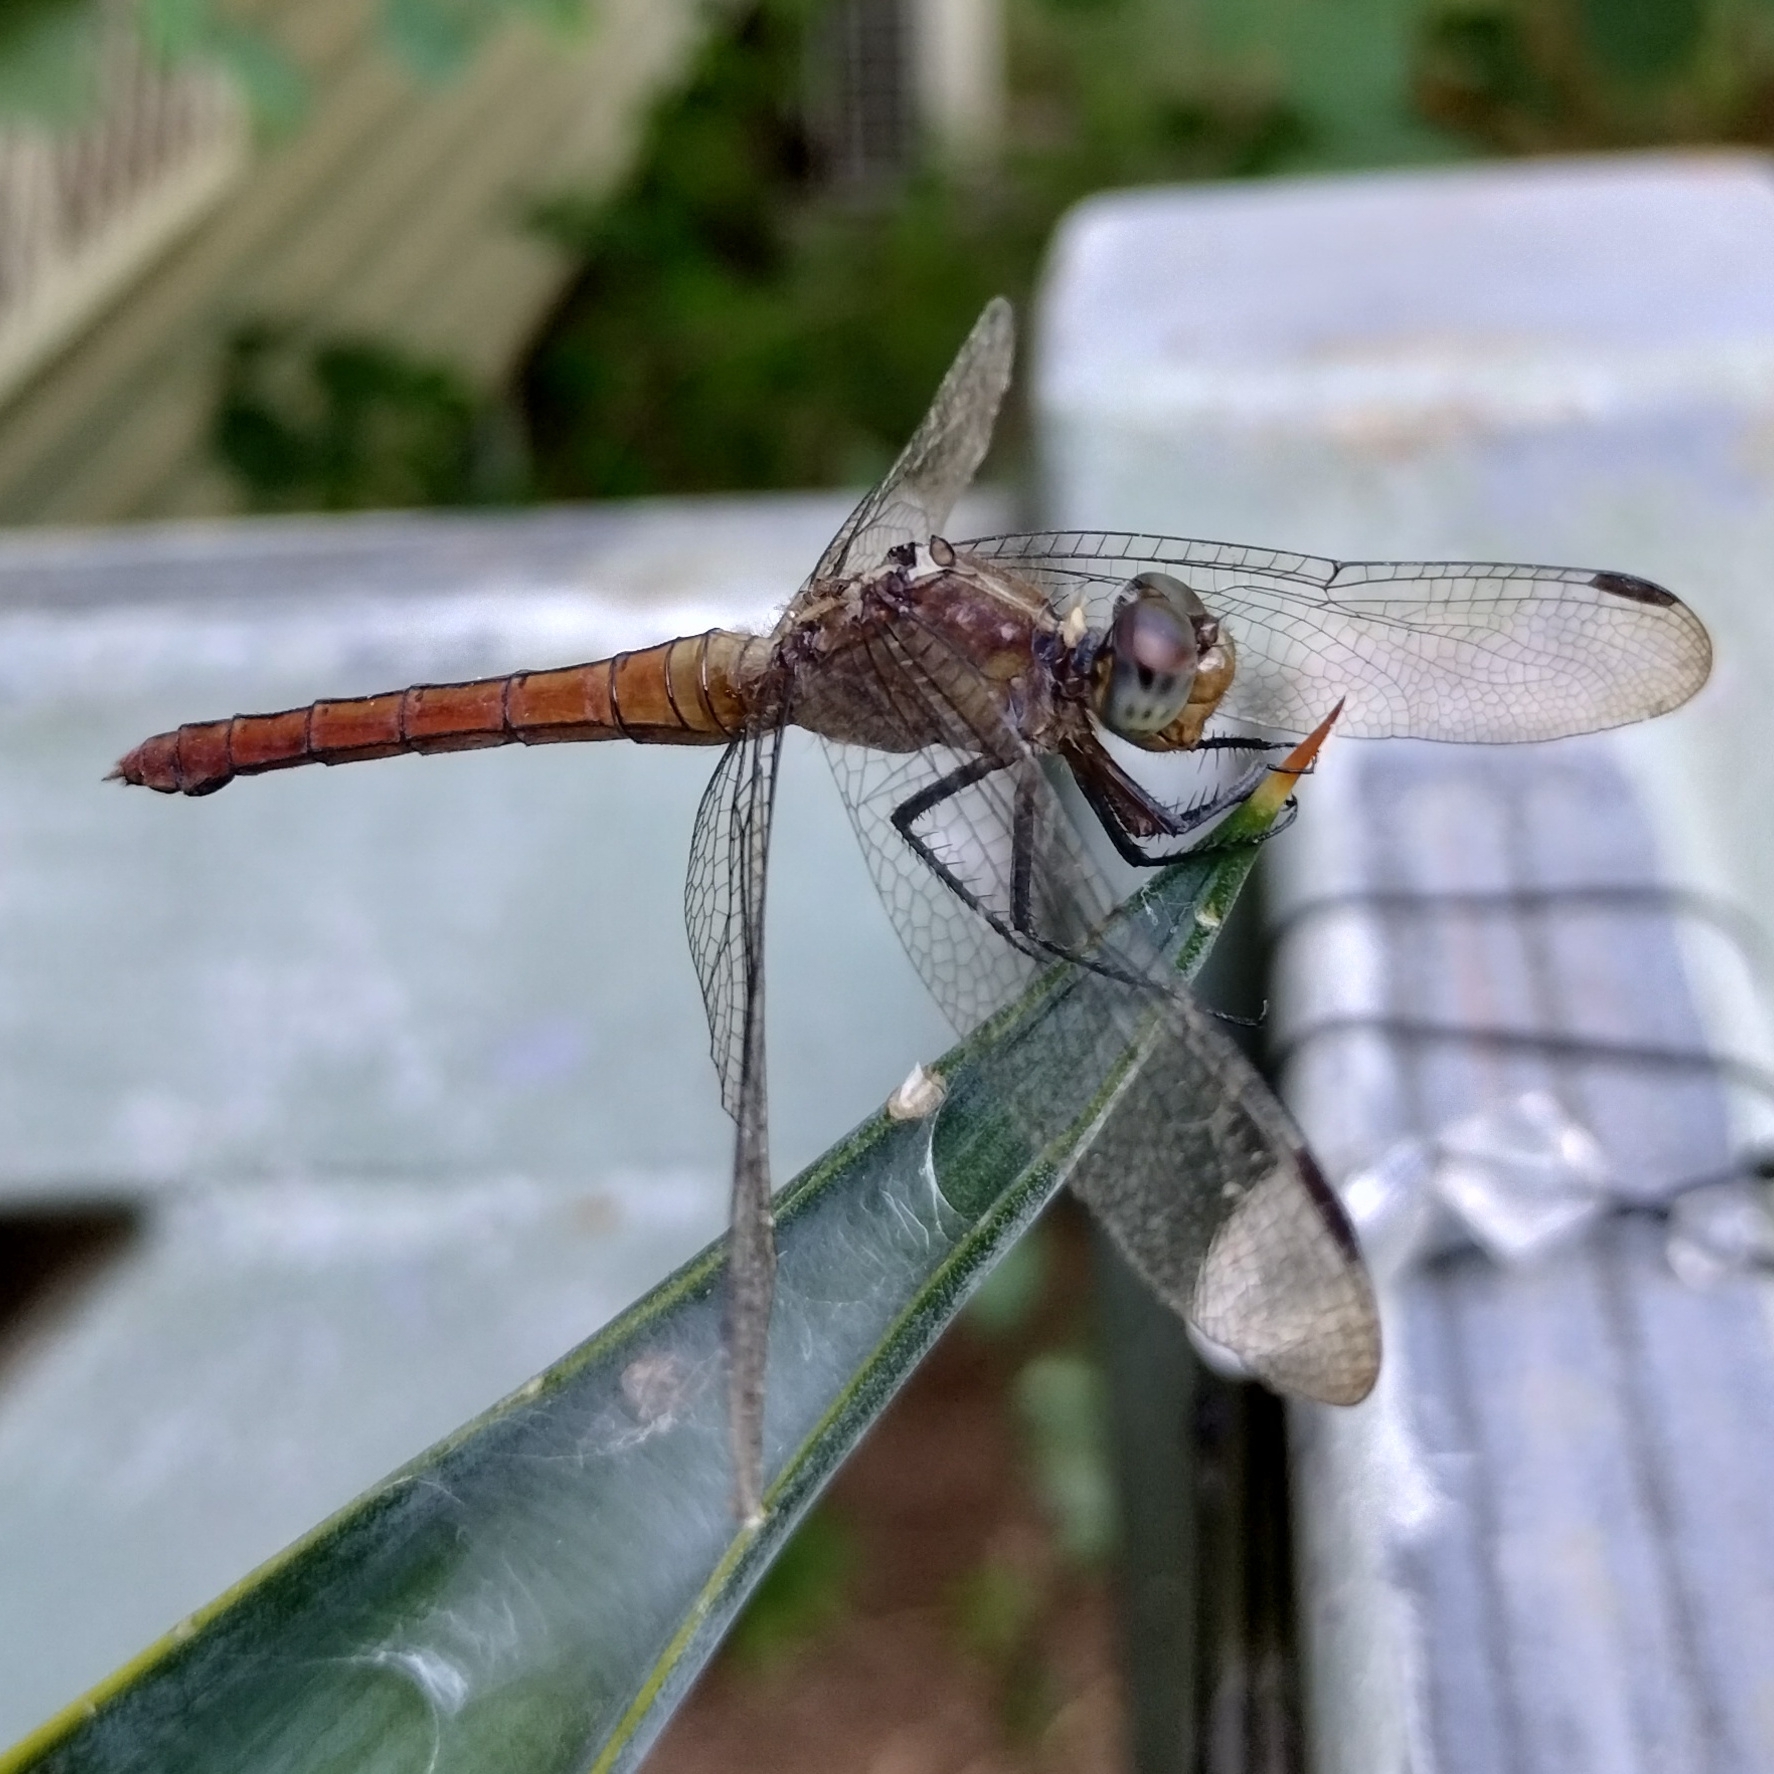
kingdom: Animalia
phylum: Arthropoda
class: Insecta
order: Odonata
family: Libellulidae
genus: Orthetrum
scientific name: Orthetrum villosovittatum
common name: Firery skimmer
